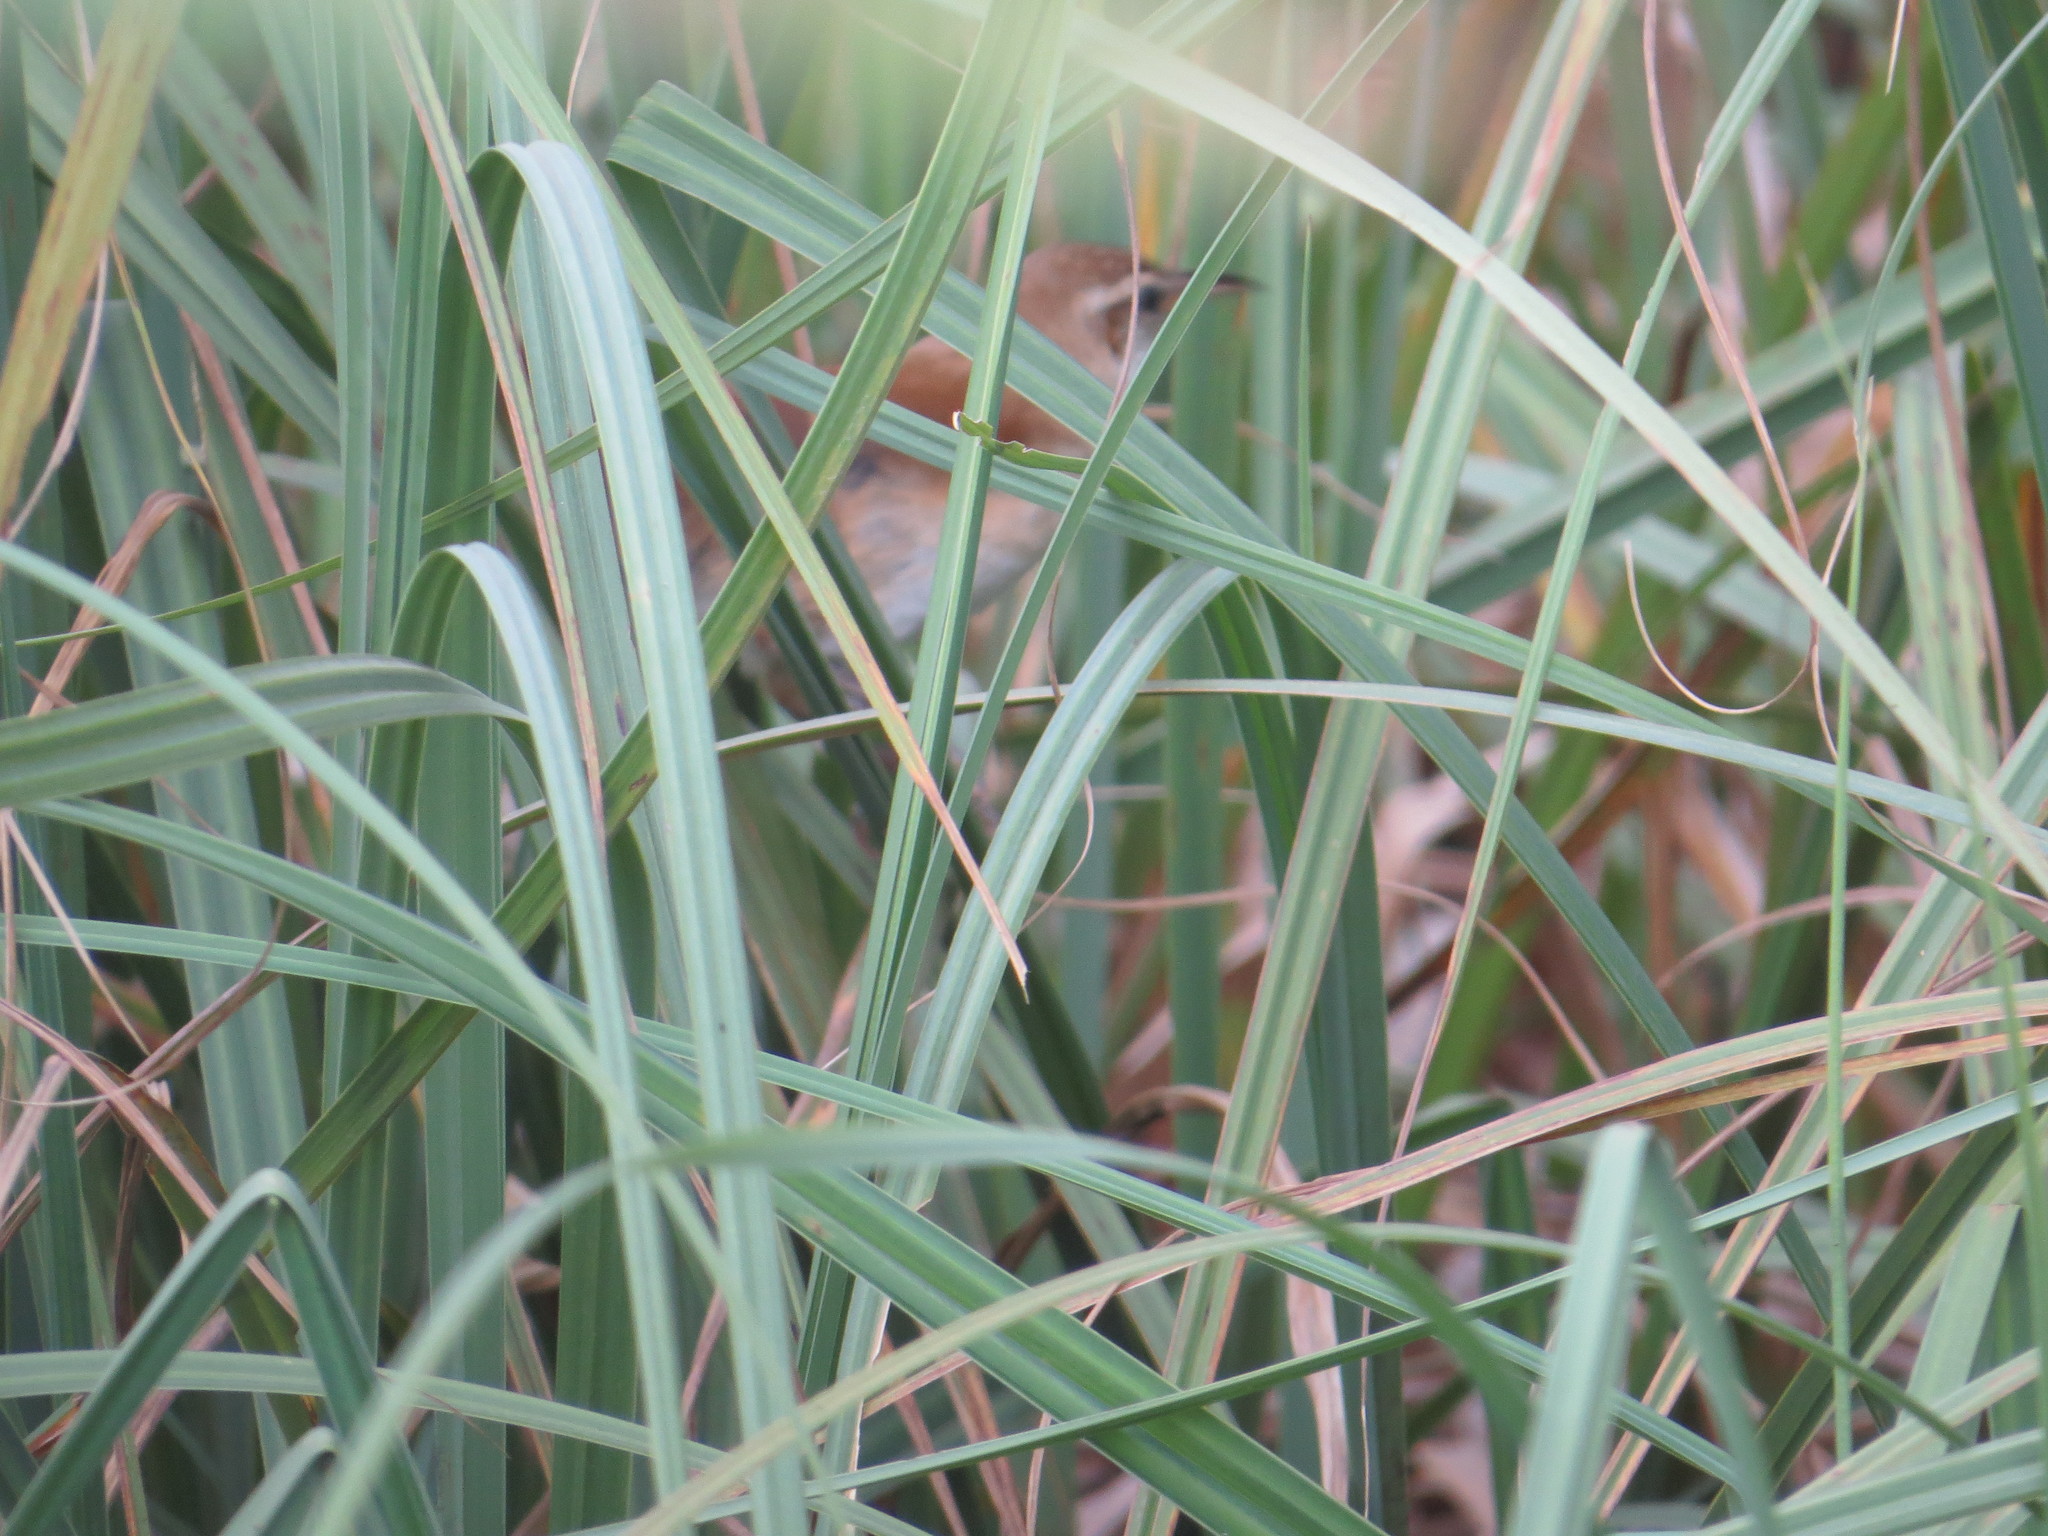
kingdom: Animalia
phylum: Chordata
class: Aves
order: Passeriformes
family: Furnariidae
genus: Limnornis
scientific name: Limnornis curvirostris
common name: Curve-billed reedhaunter
